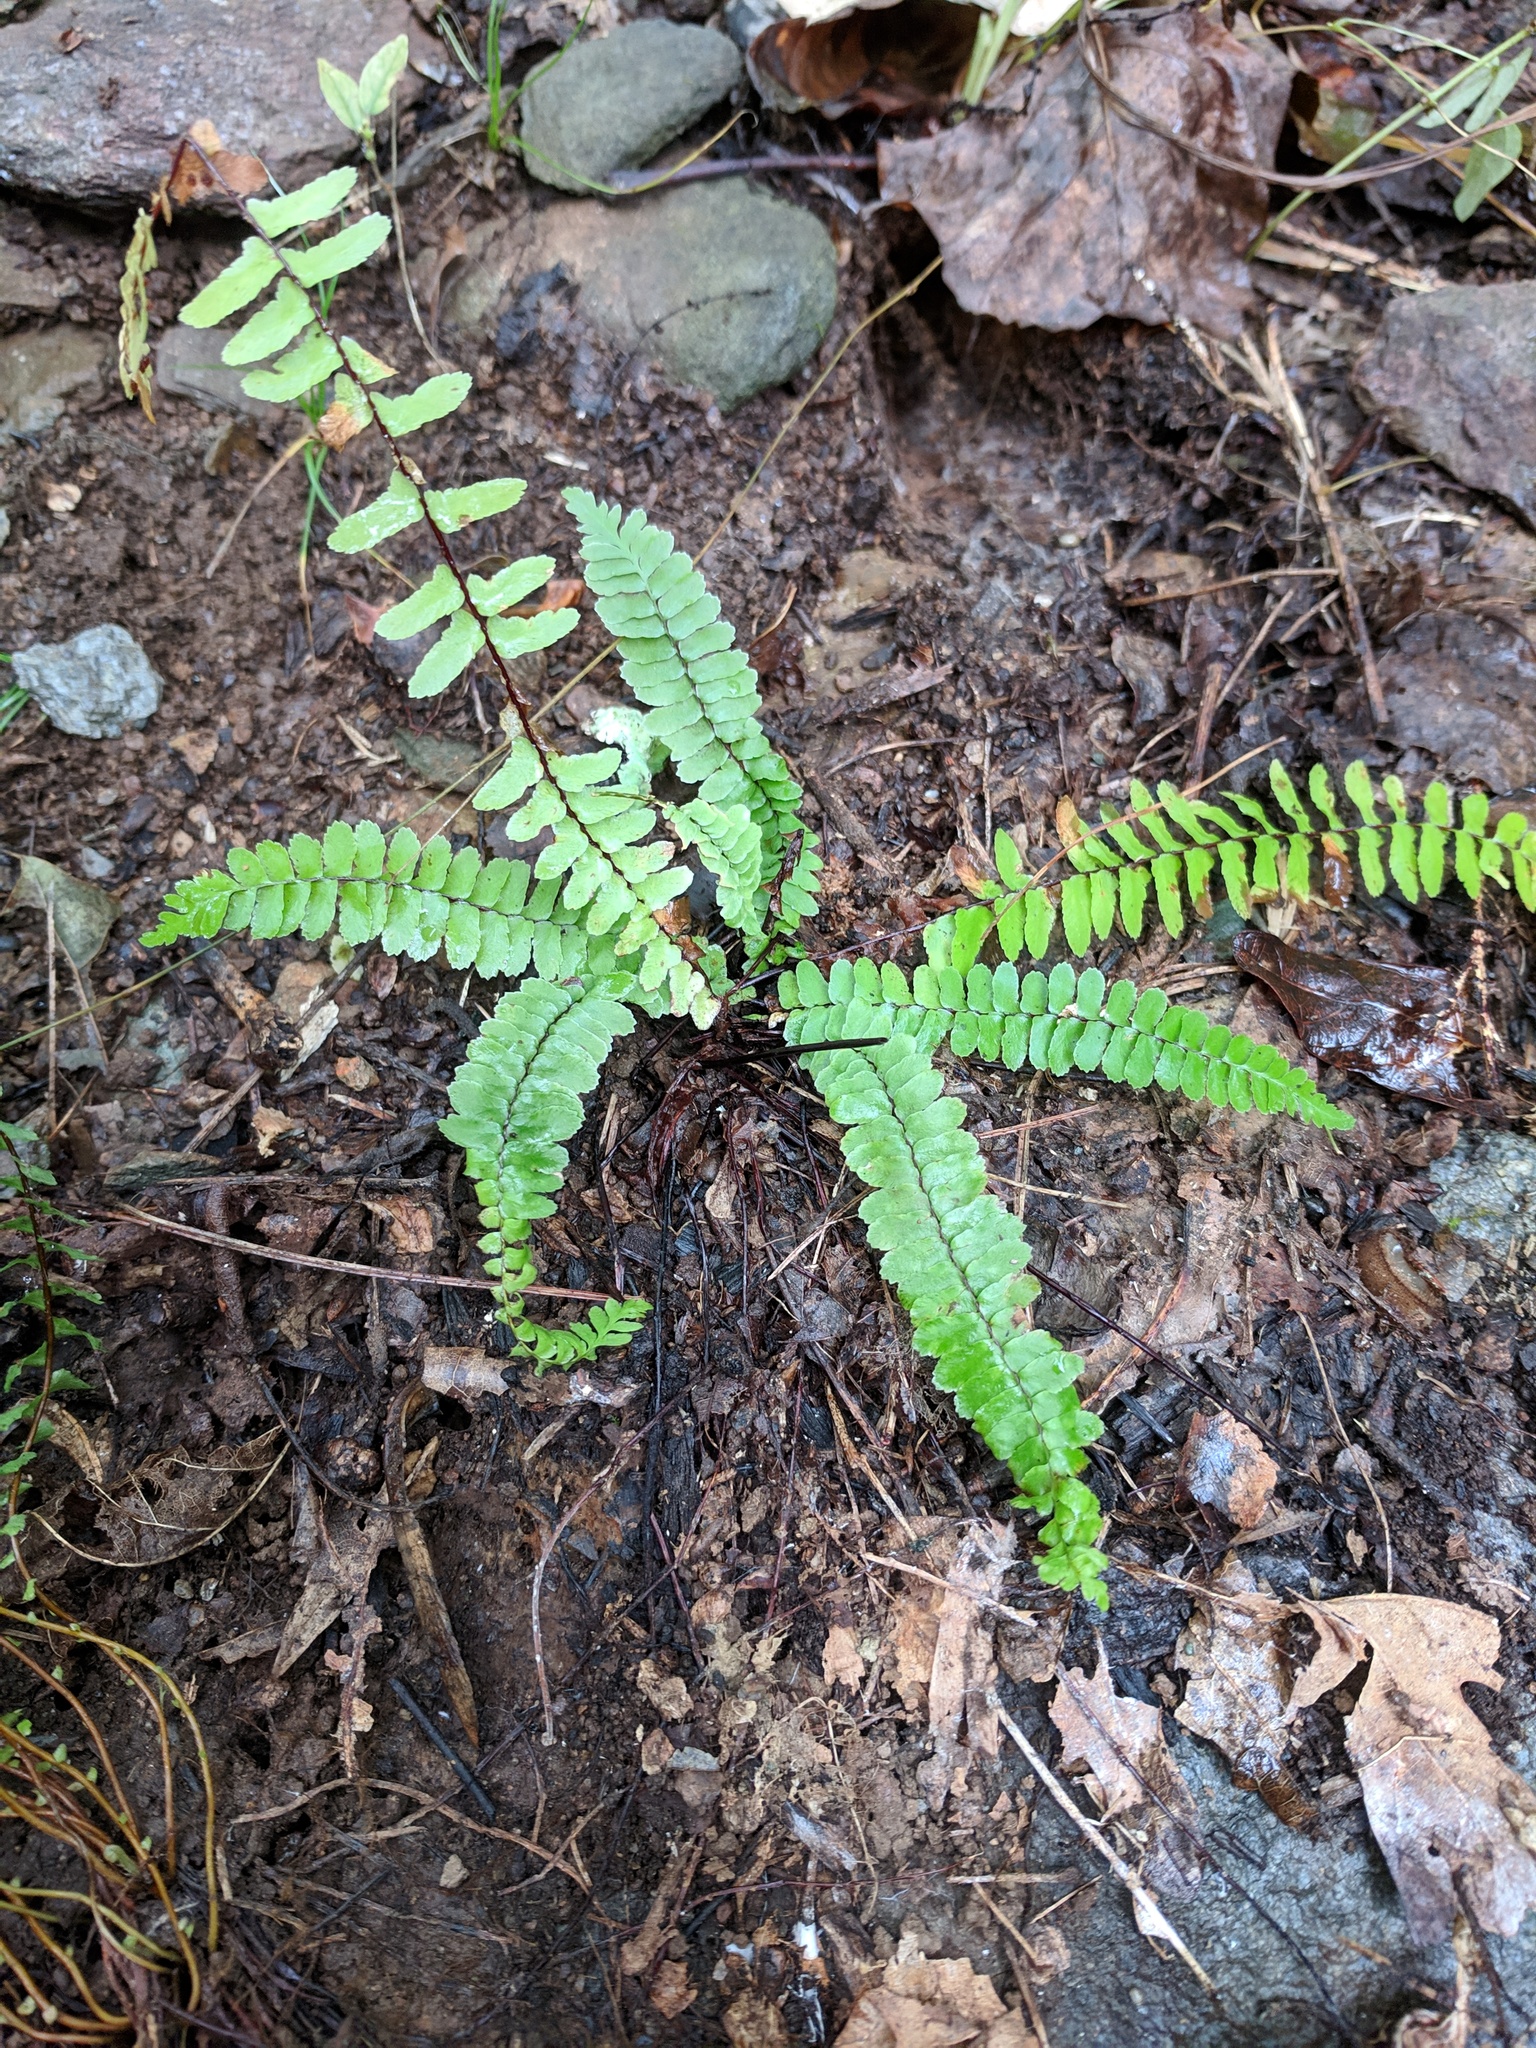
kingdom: Plantae
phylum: Tracheophyta
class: Polypodiopsida
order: Polypodiales
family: Aspleniaceae
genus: Asplenium
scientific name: Asplenium platyneuron
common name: Ebony spleenwort
